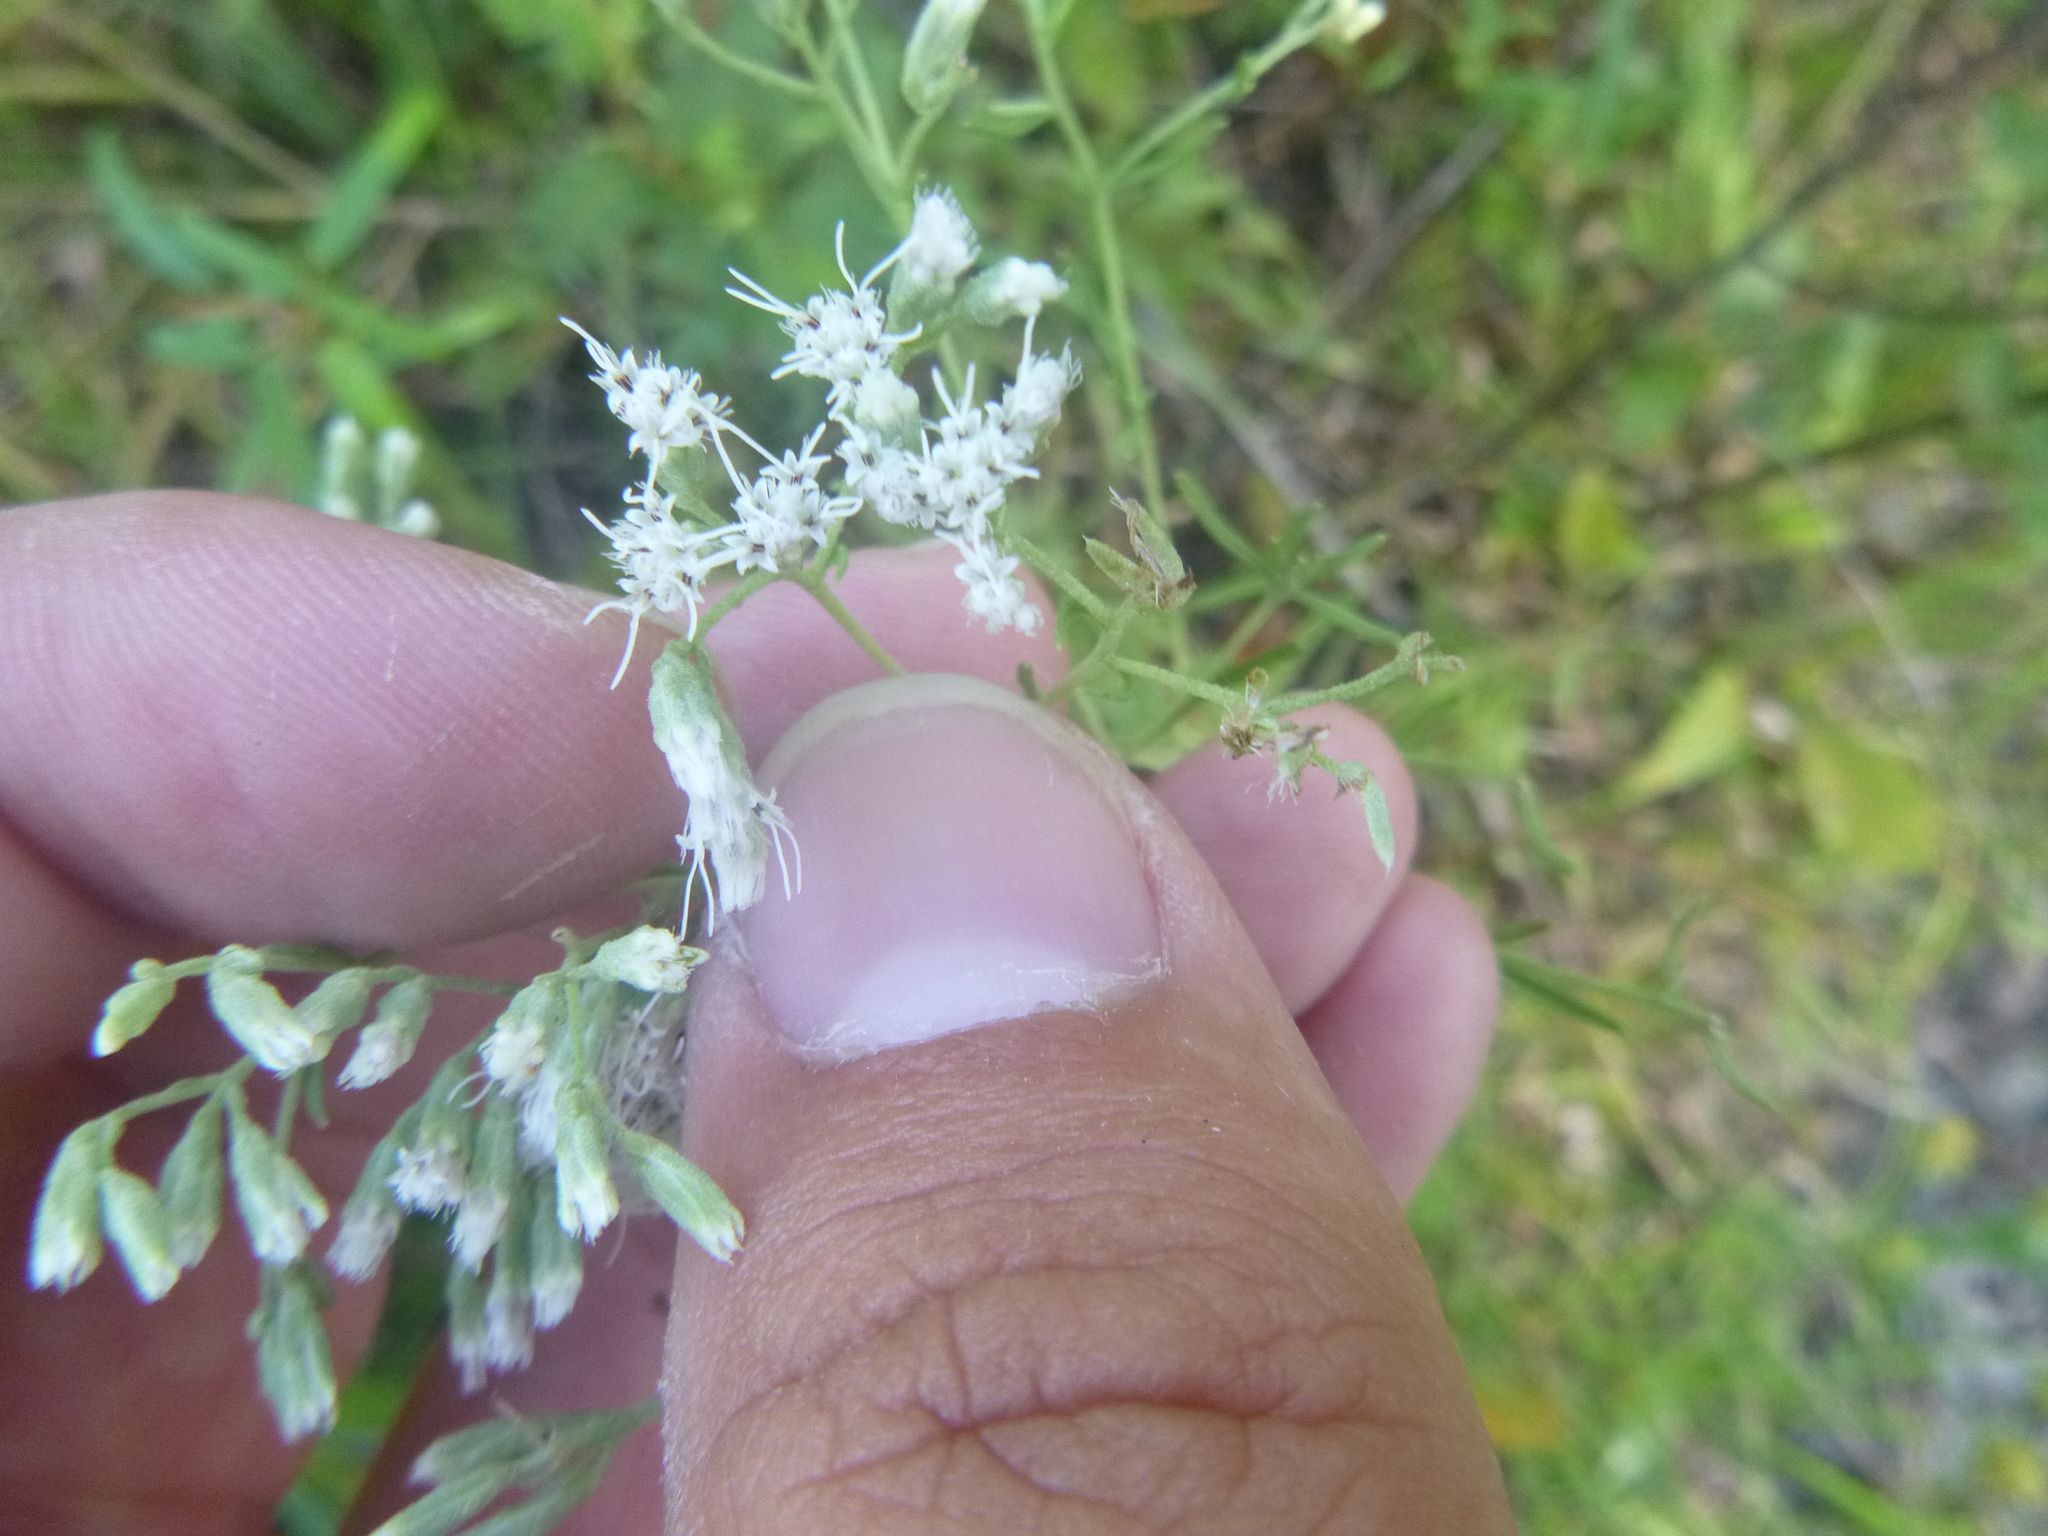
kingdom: Plantae
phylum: Tracheophyta
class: Magnoliopsida
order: Asterales
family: Asteraceae
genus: Eupatorium
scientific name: Eupatorium hyssopifolium
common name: Hyssop-leaf thoroughwort
